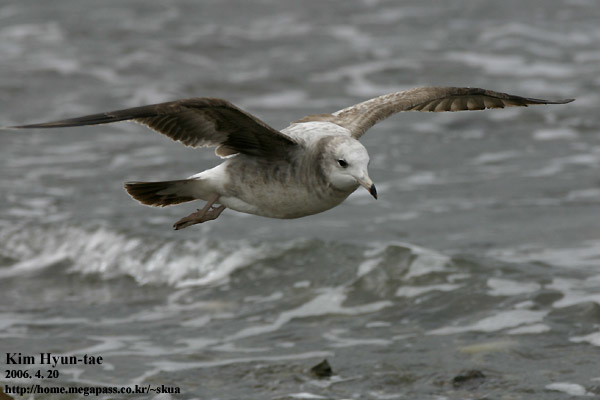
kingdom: Animalia
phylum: Chordata
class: Aves
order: Charadriiformes
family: Laridae
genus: Larus
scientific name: Larus crassirostris
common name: Black-tailed gull
